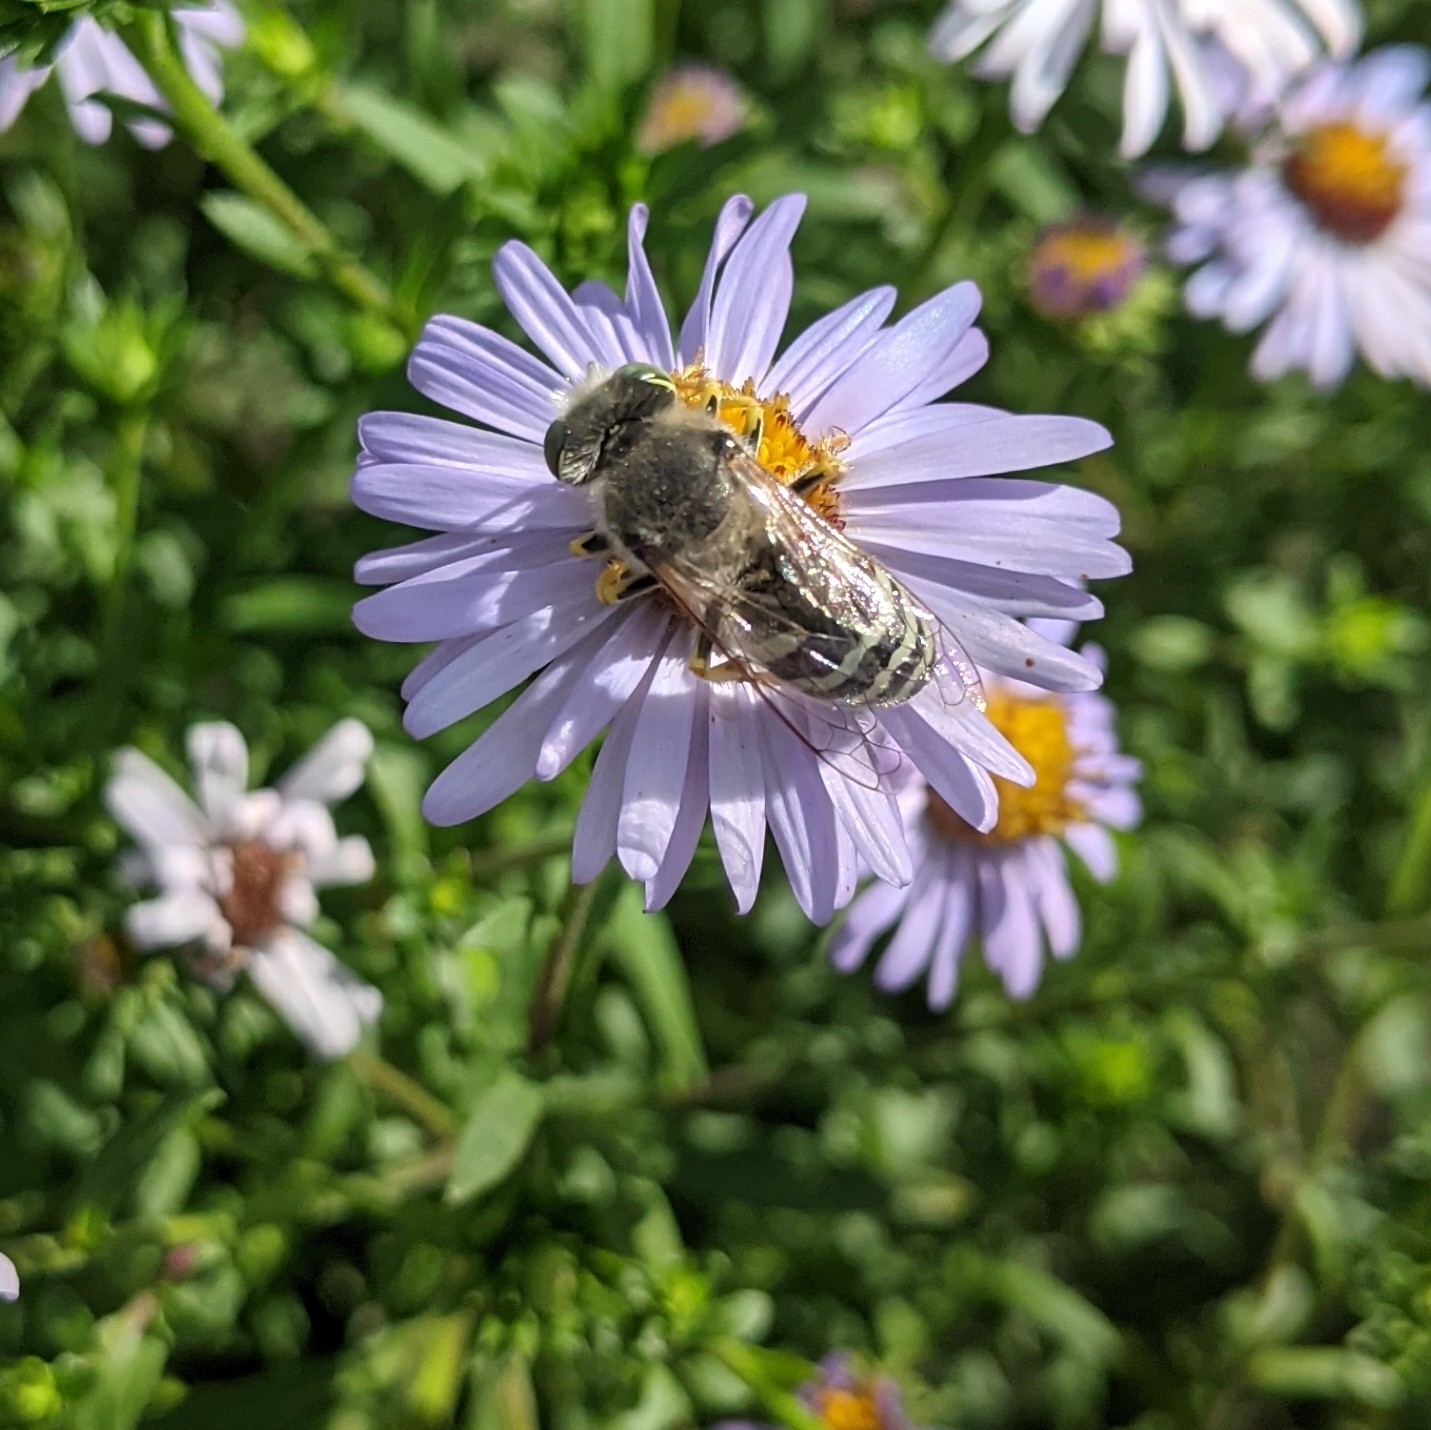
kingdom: Animalia
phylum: Arthropoda
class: Insecta
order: Hymenoptera
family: Crabronidae
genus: Bembix
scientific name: Bembix americana
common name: American sand wasp
